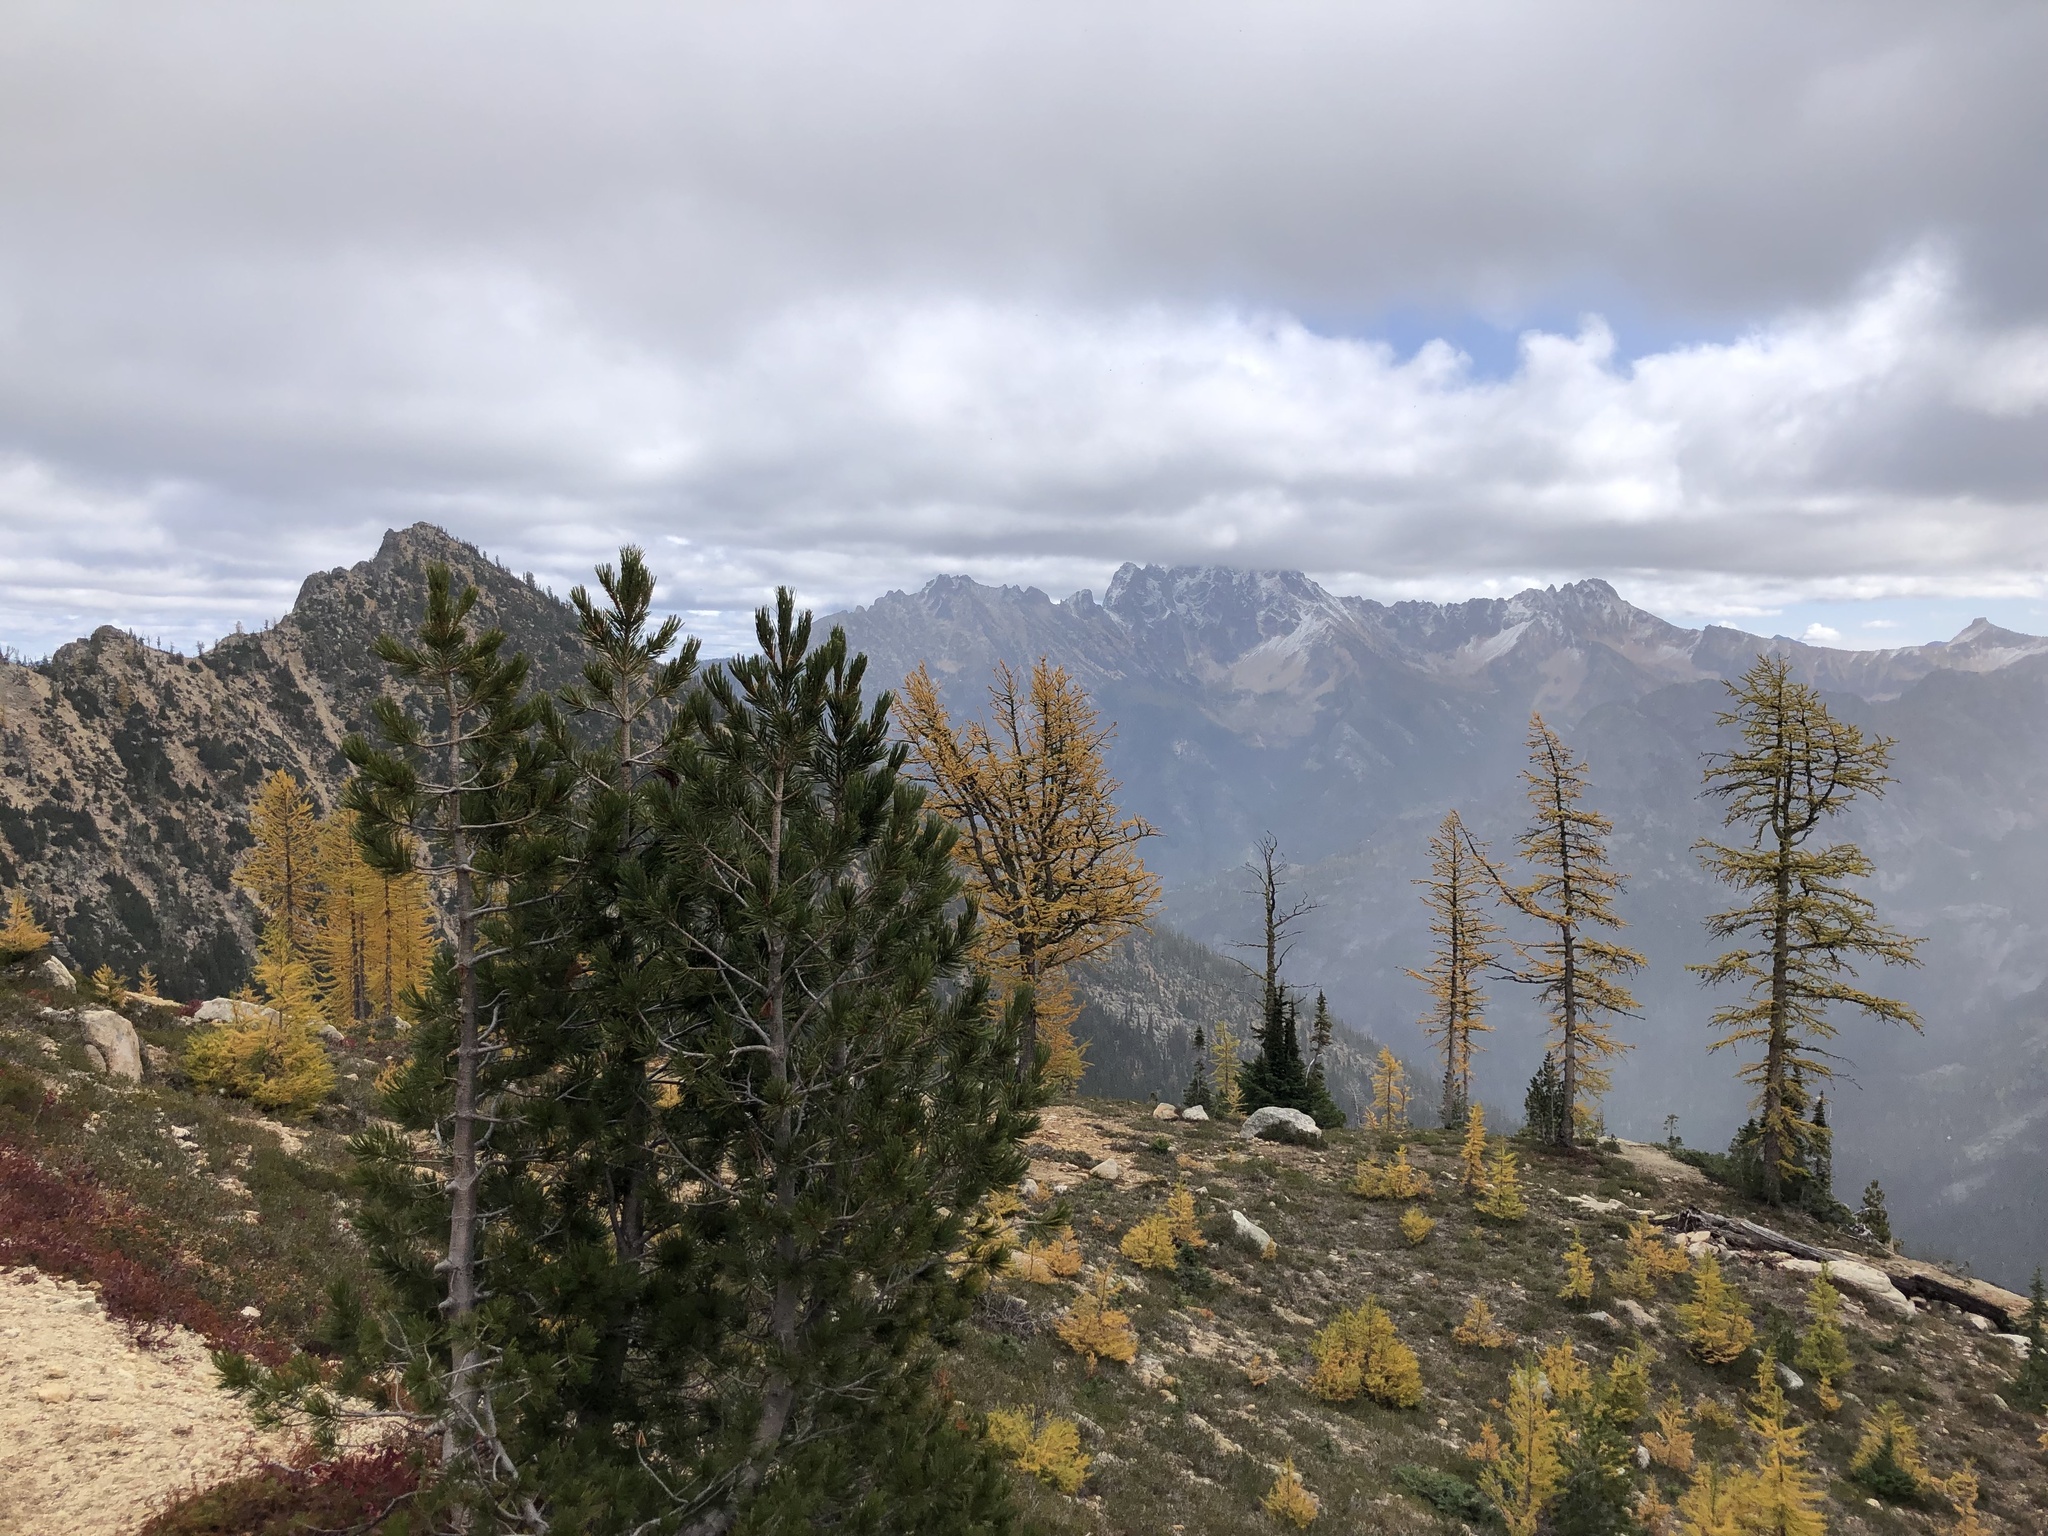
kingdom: Plantae
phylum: Tracheophyta
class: Pinopsida
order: Pinales
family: Pinaceae
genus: Larix
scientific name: Larix lyallii
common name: Alpine larch
